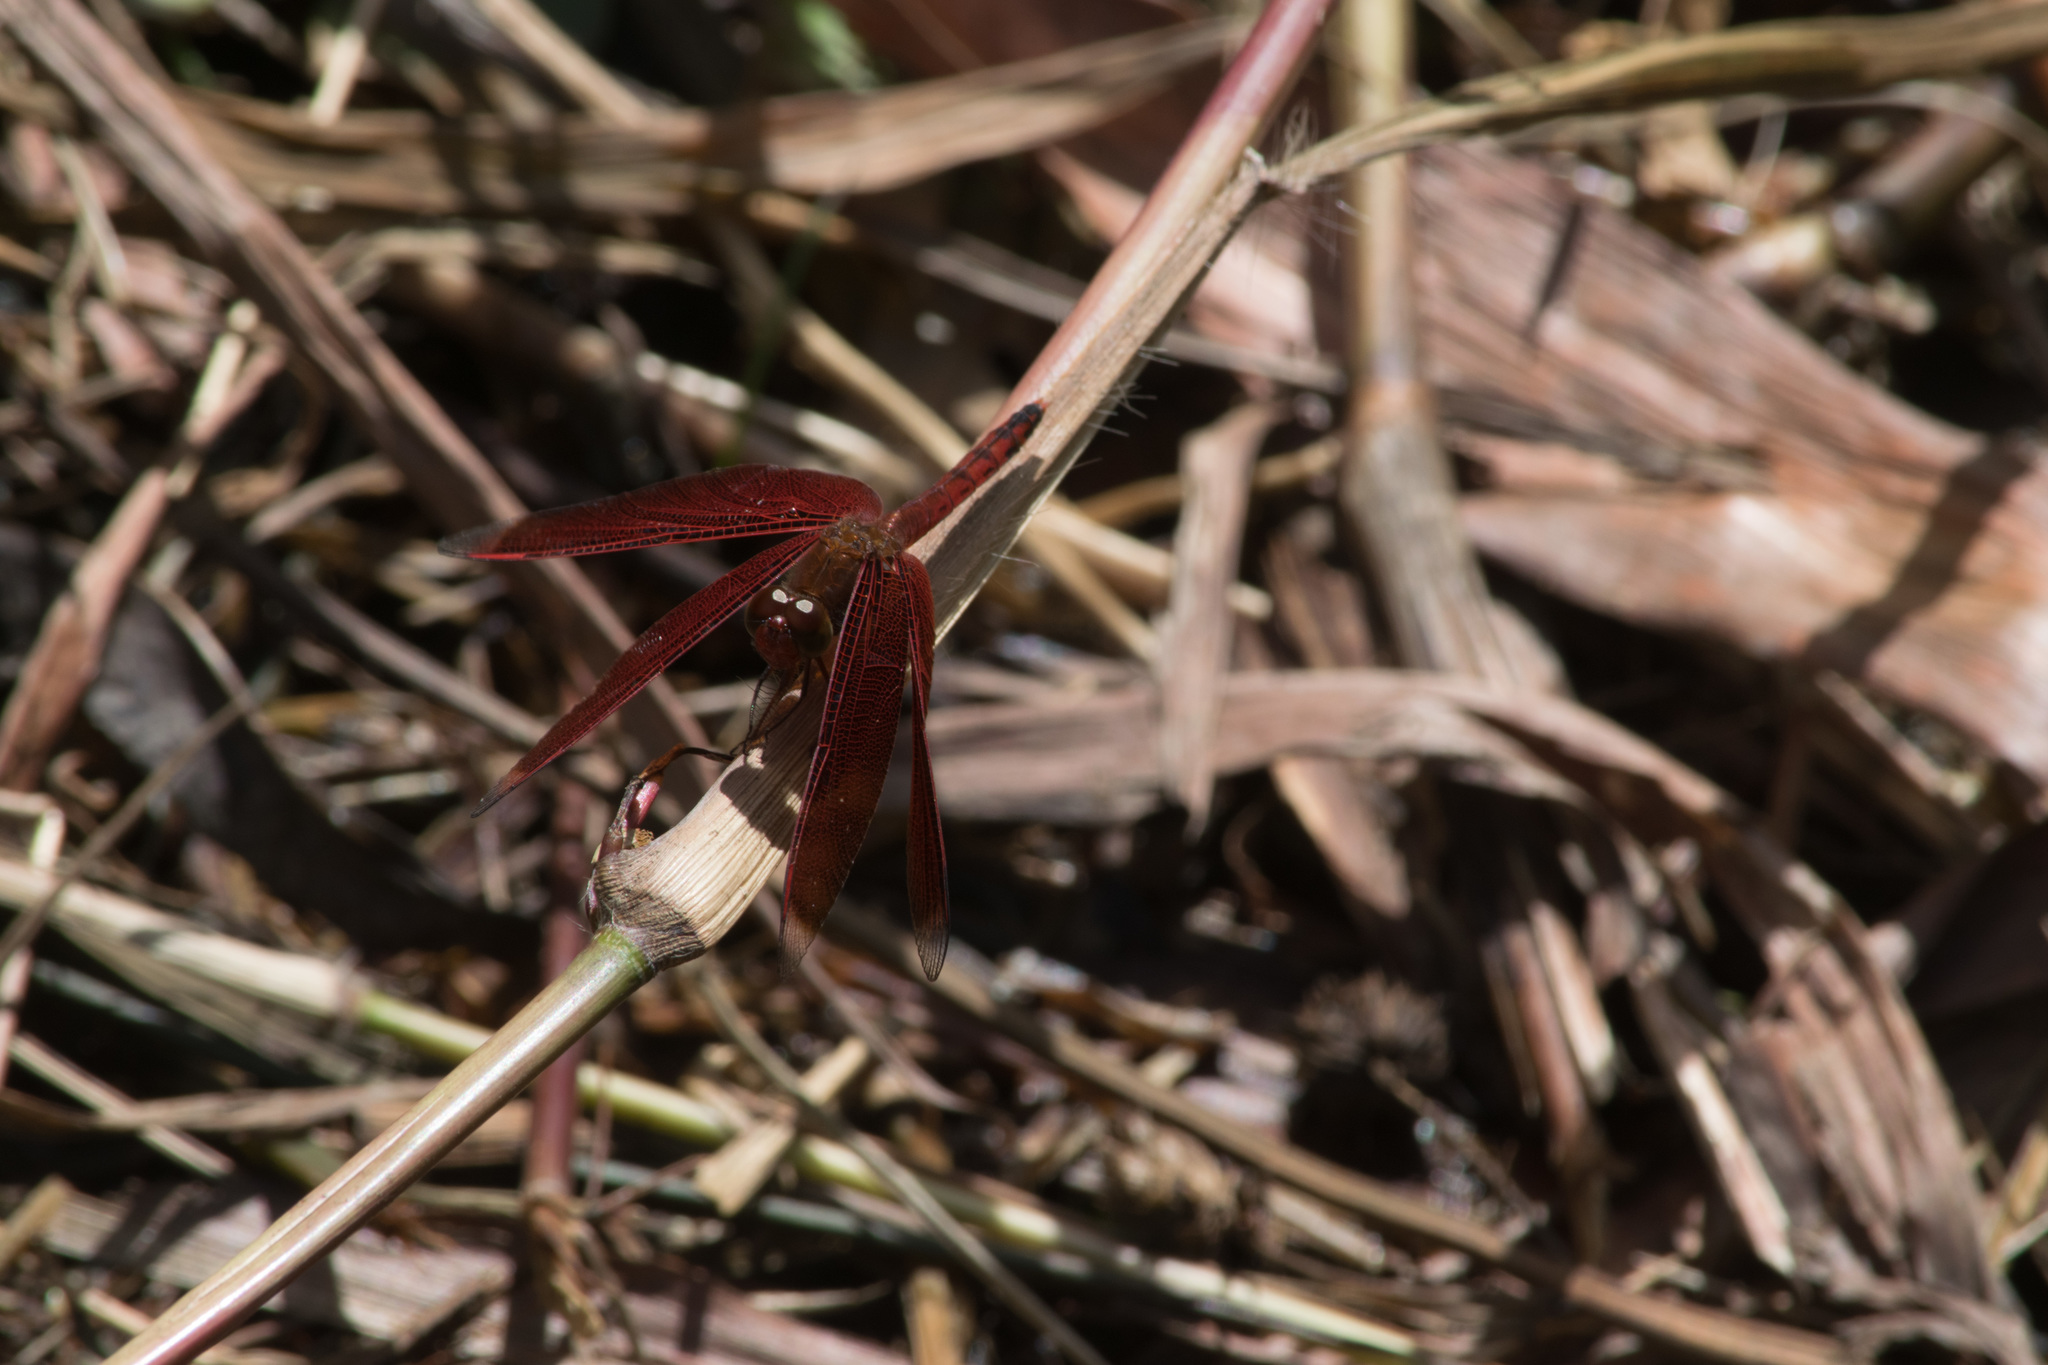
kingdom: Animalia
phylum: Arthropoda
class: Insecta
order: Odonata
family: Libellulidae
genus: Neurothemis
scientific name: Neurothemis terminata
